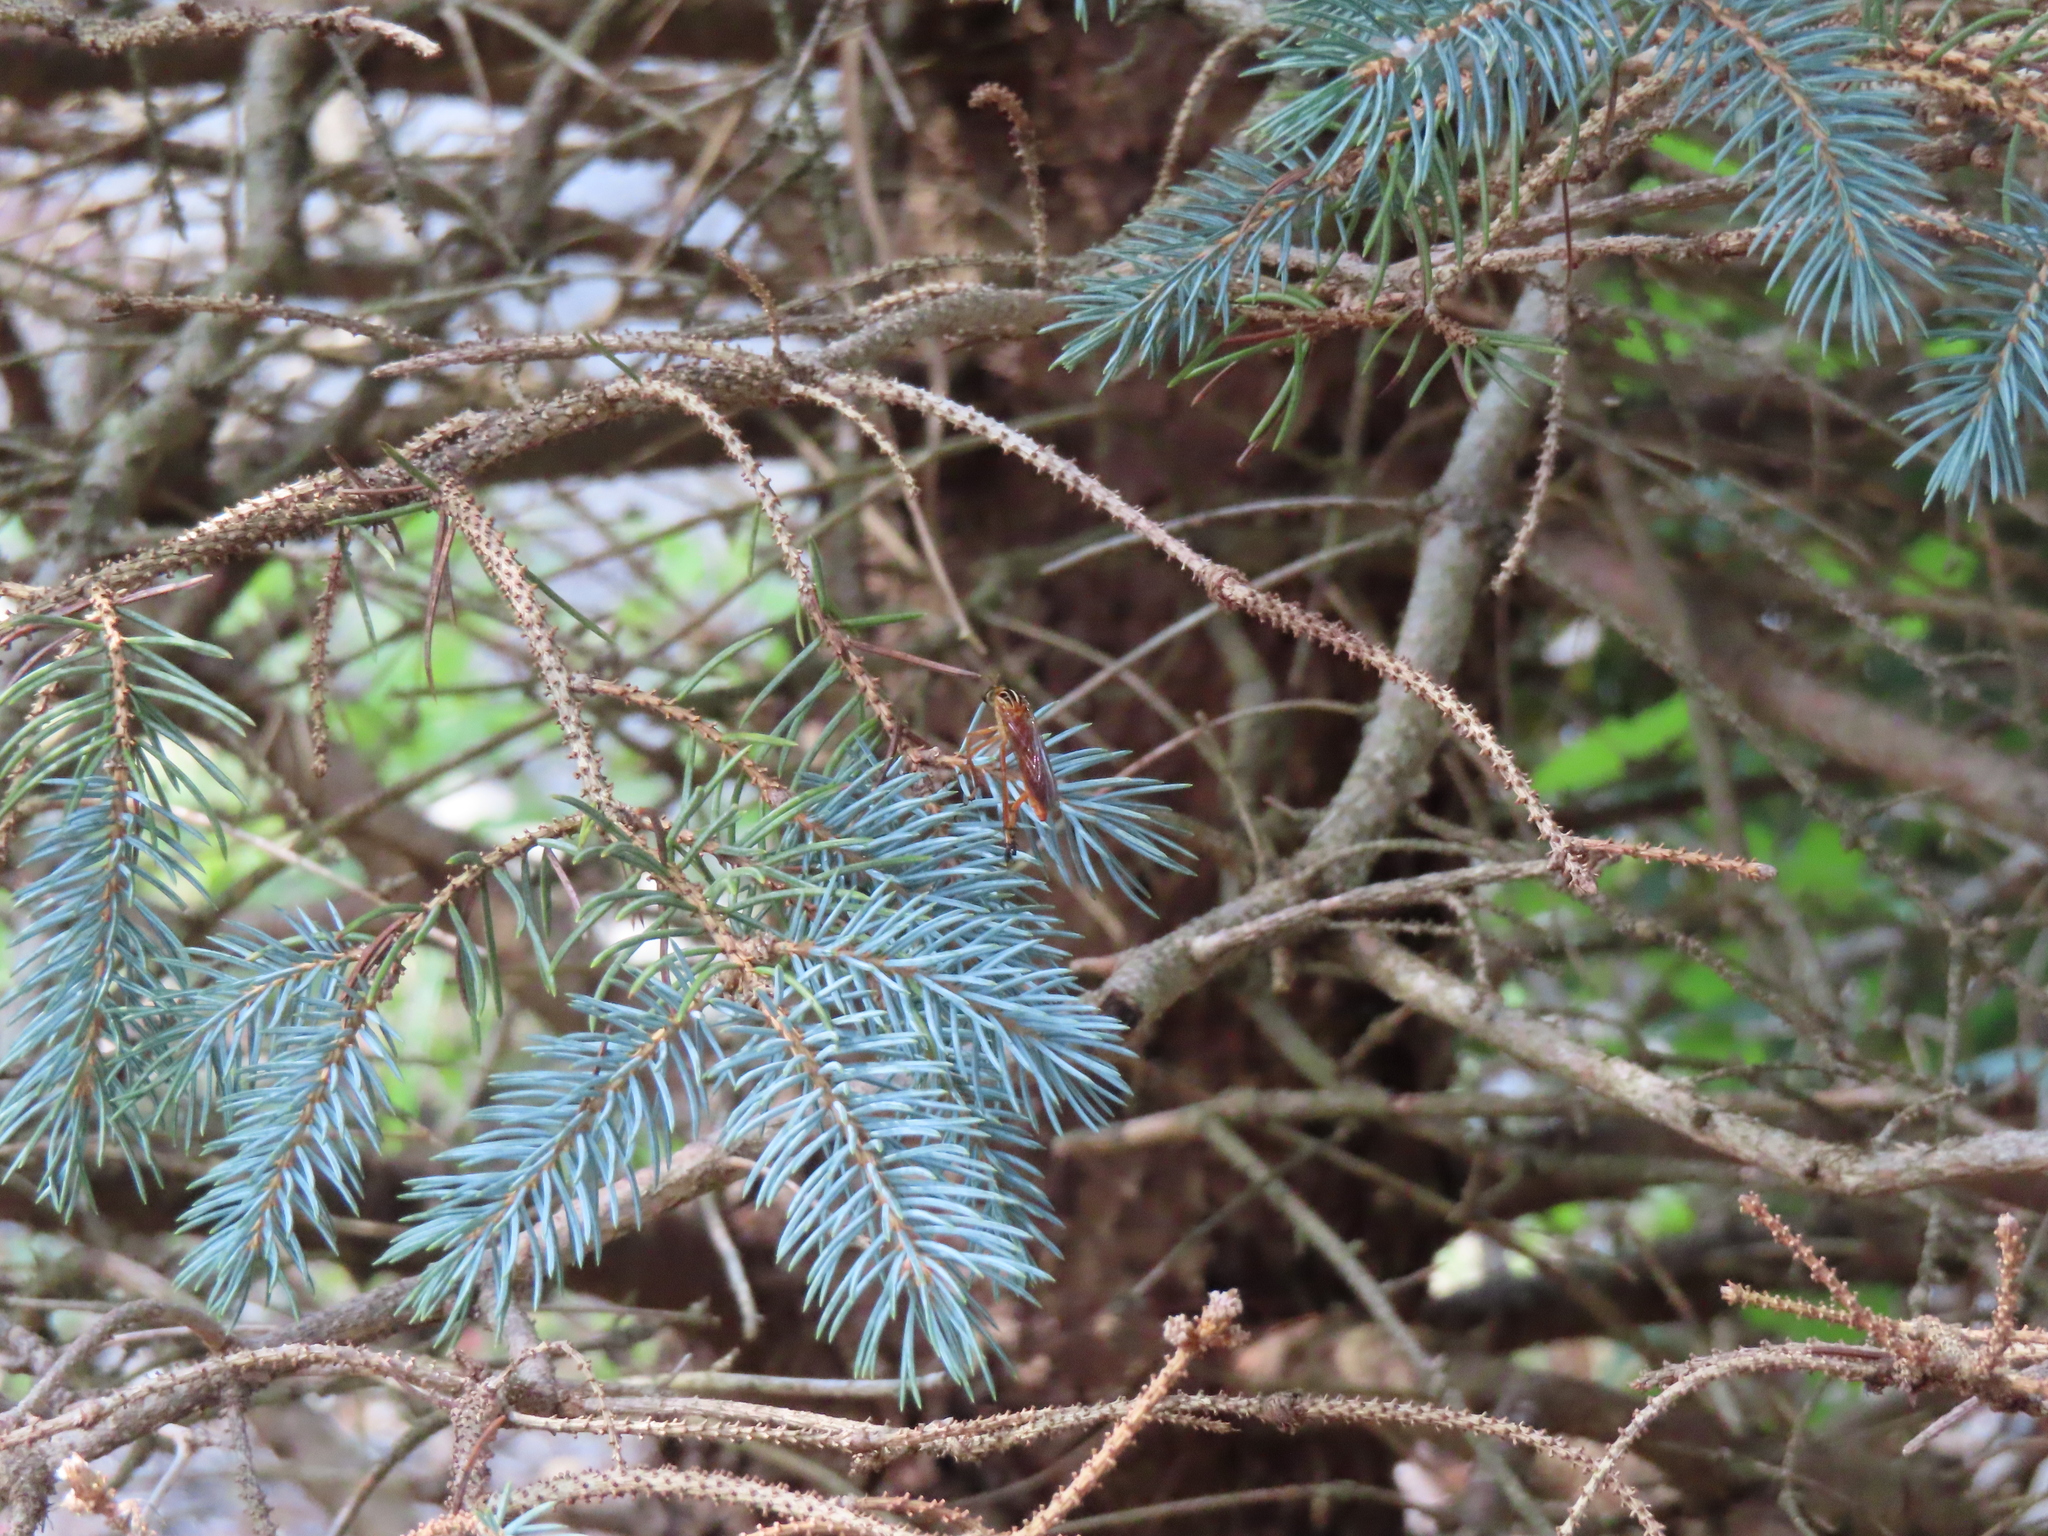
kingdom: Animalia
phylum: Arthropoda
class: Insecta
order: Diptera
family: Asilidae
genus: Diogmites
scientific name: Diogmites neoternatus
